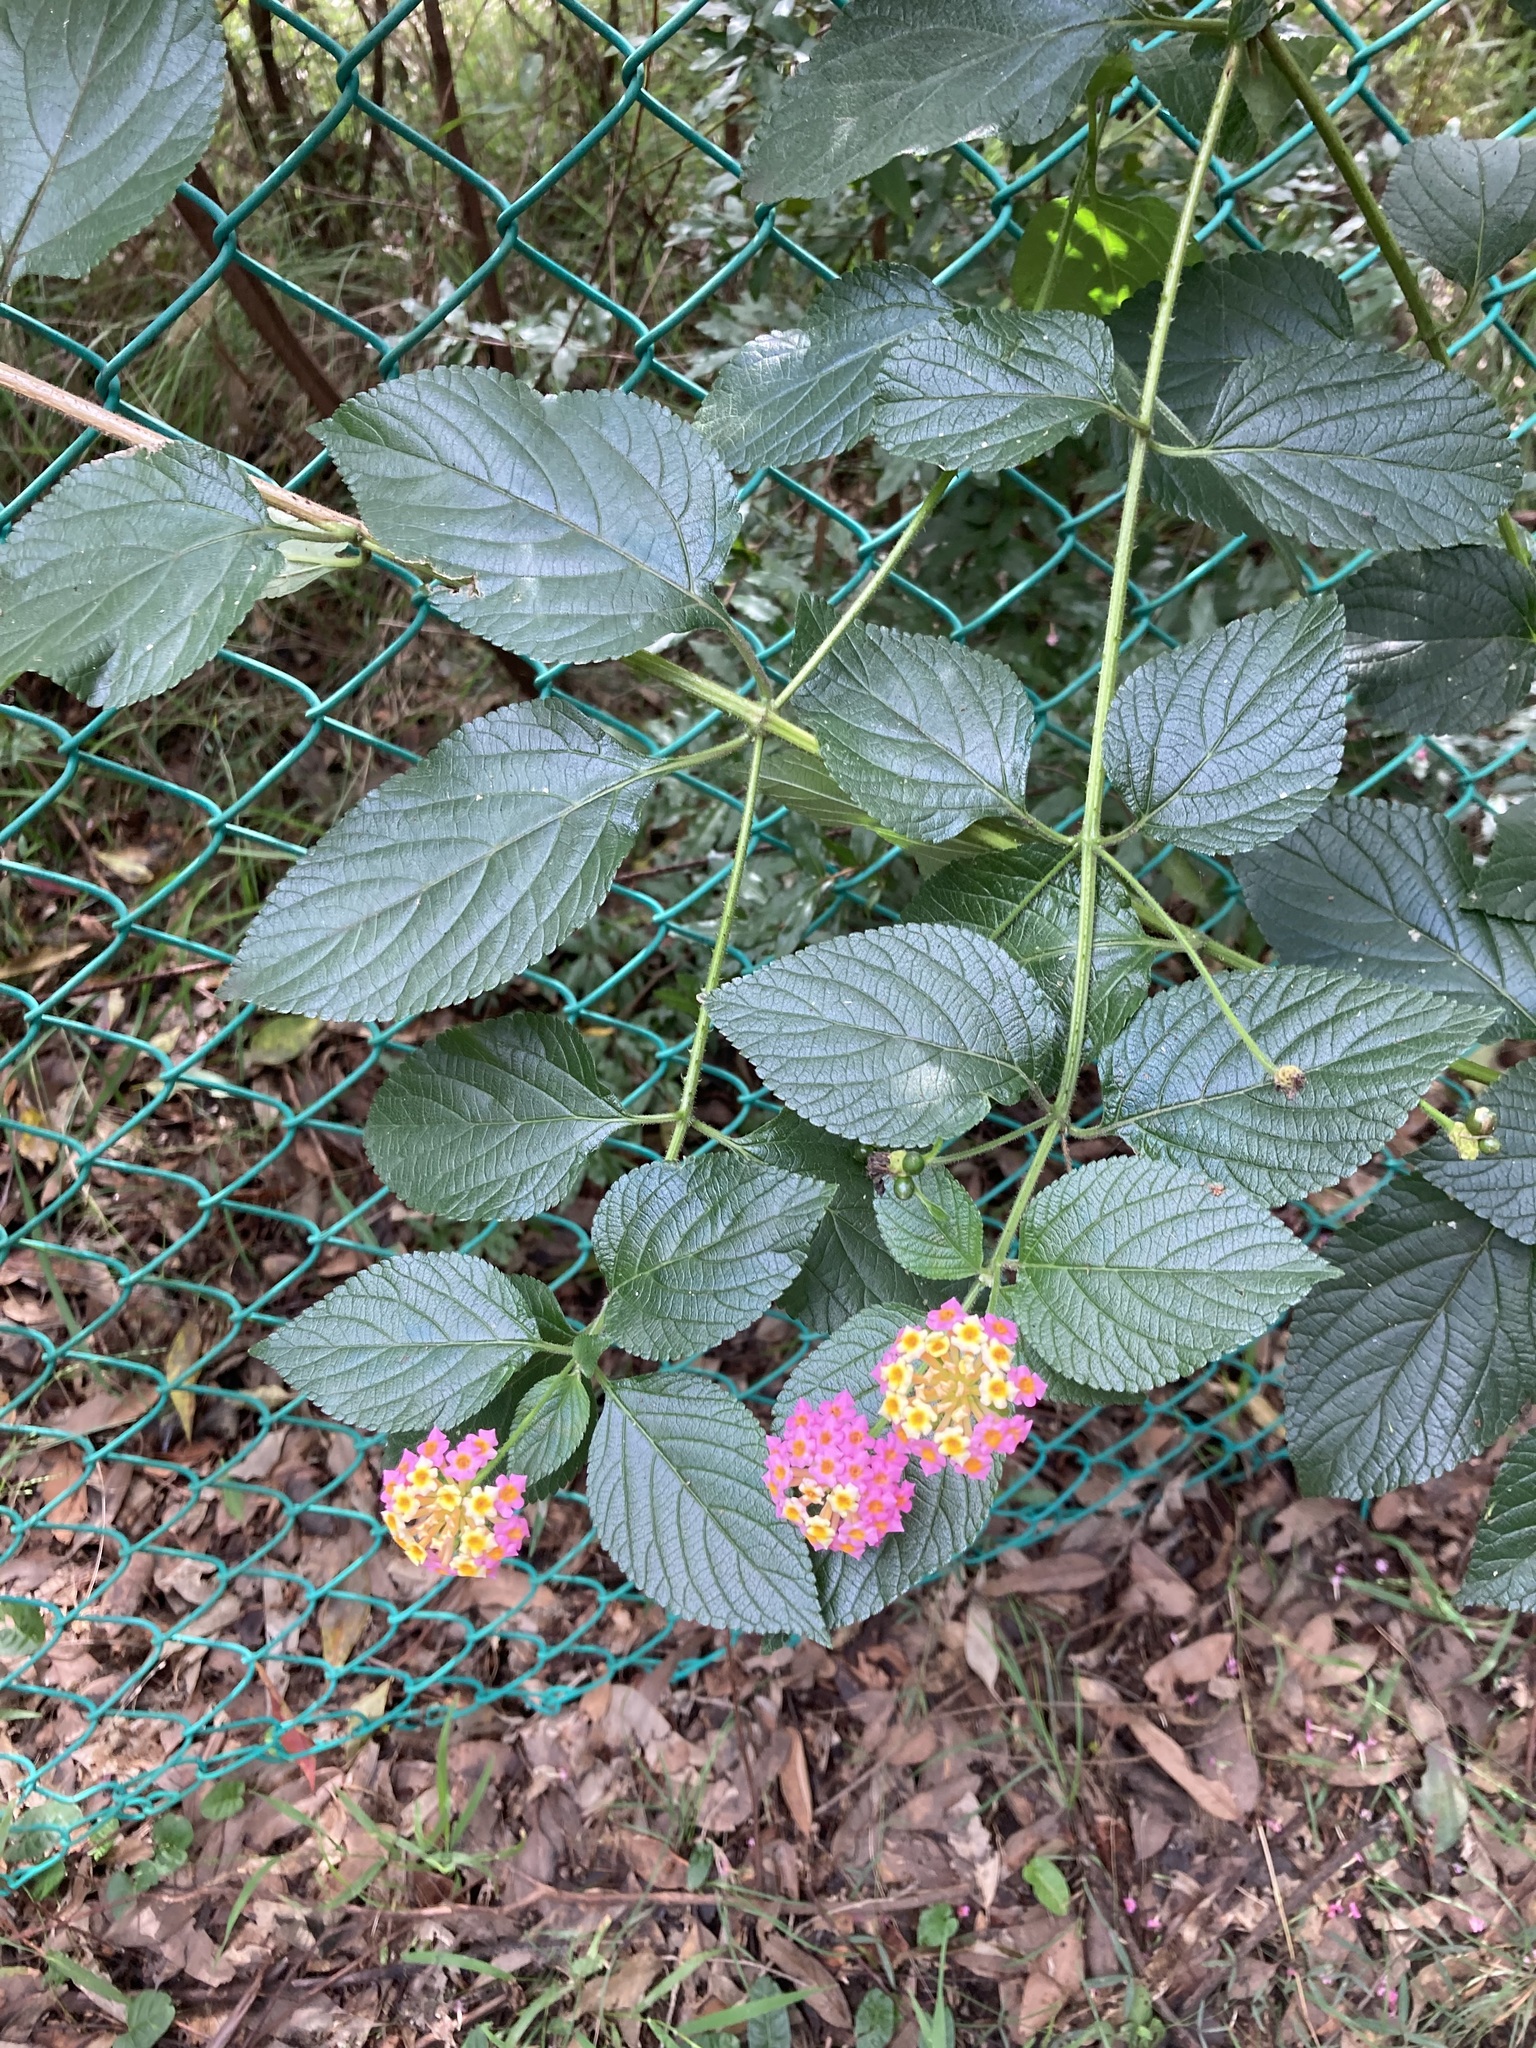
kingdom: Plantae
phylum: Tracheophyta
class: Magnoliopsida
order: Lamiales
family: Verbenaceae
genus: Lantana
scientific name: Lantana camara
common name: Lantana
